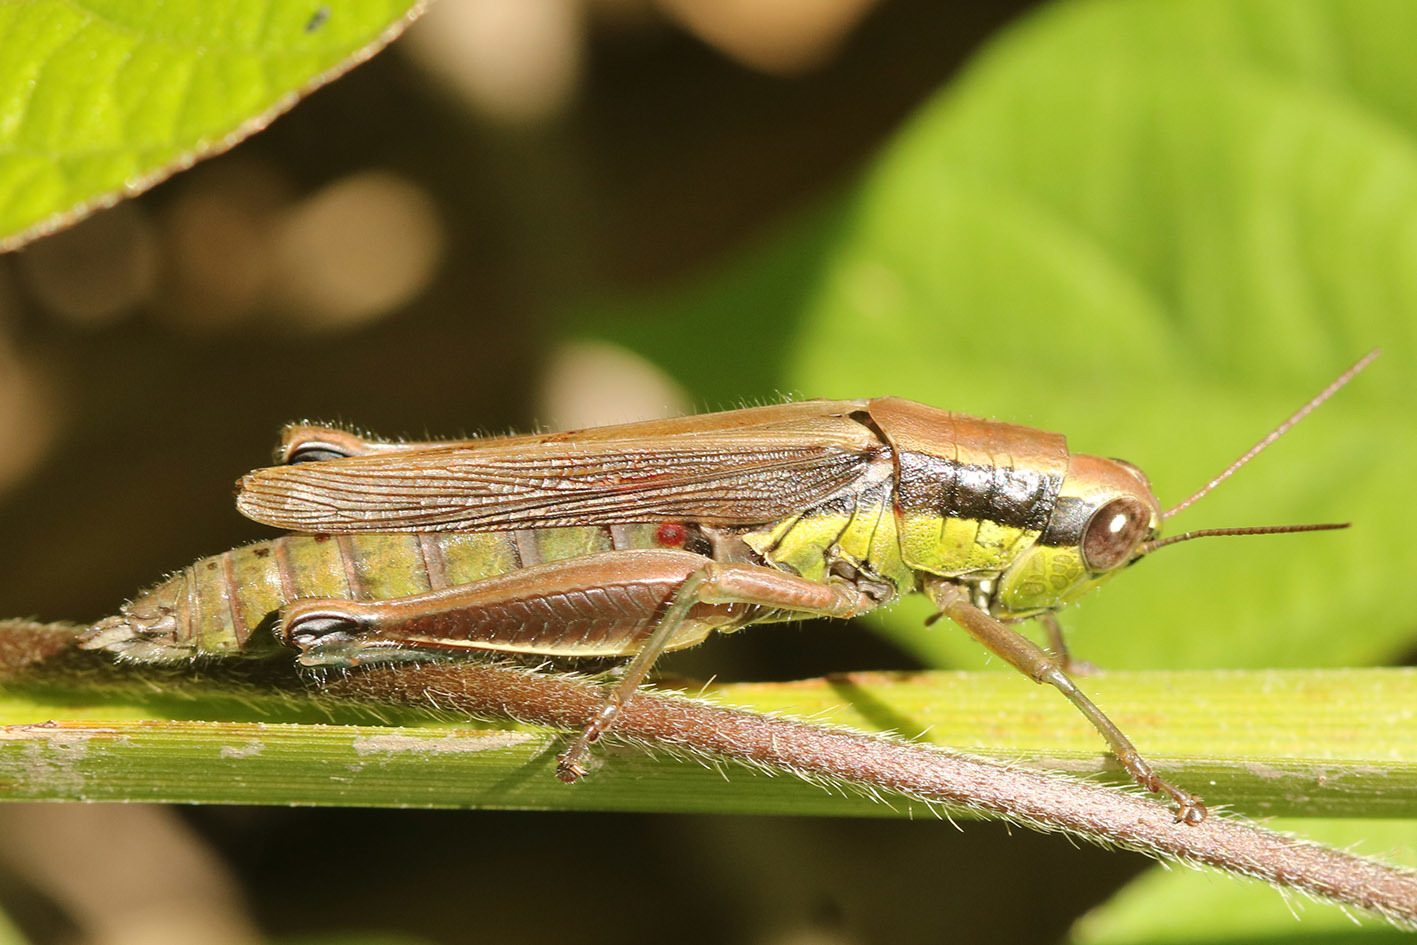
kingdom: Animalia
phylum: Arthropoda
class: Insecta
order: Orthoptera
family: Acrididae
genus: Scotussa
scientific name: Scotussa impudica
